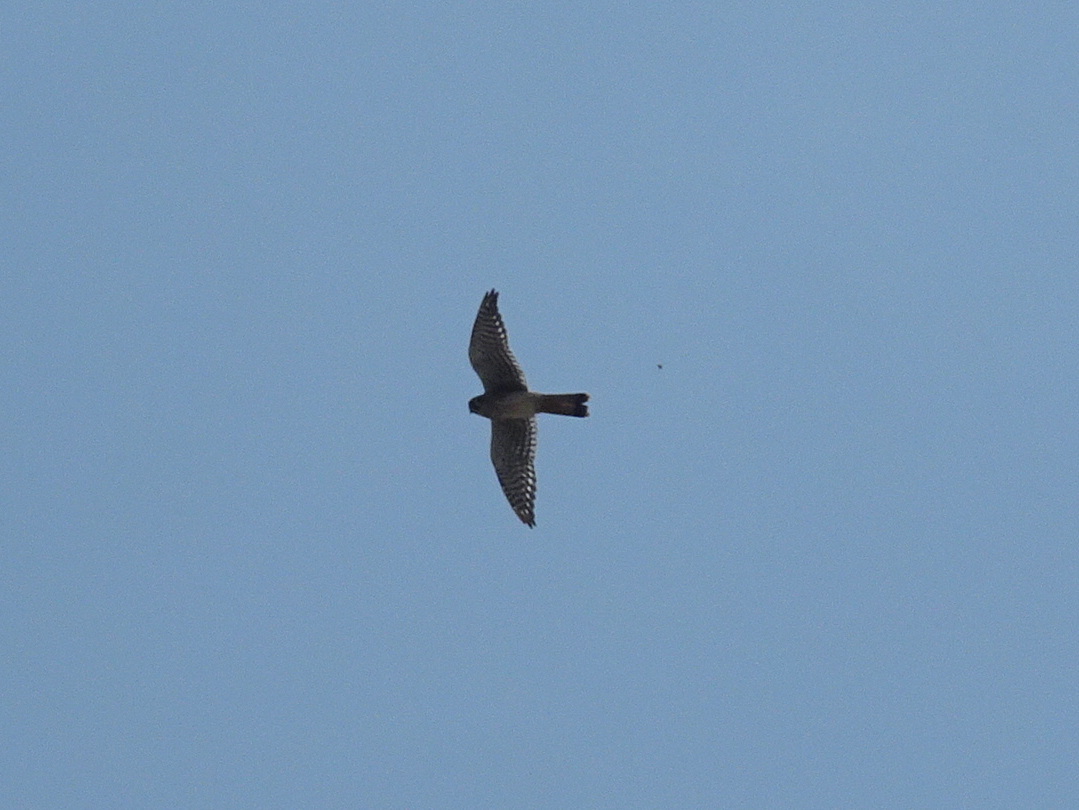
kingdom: Animalia
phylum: Chordata
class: Aves
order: Falconiformes
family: Falconidae
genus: Falco
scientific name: Falco sparverius
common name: American kestrel
